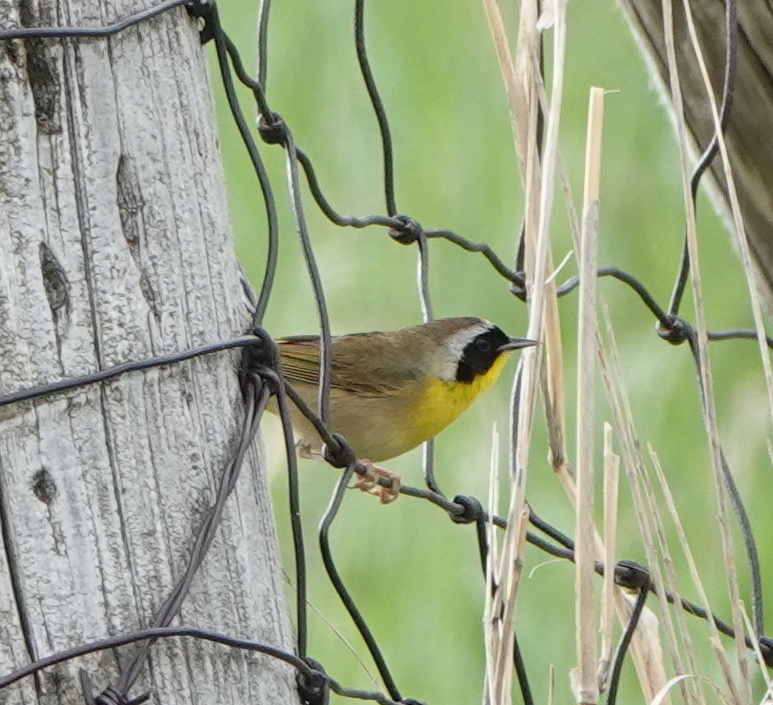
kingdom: Animalia
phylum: Chordata
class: Aves
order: Passeriformes
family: Parulidae
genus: Geothlypis
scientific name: Geothlypis trichas
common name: Common yellowthroat
